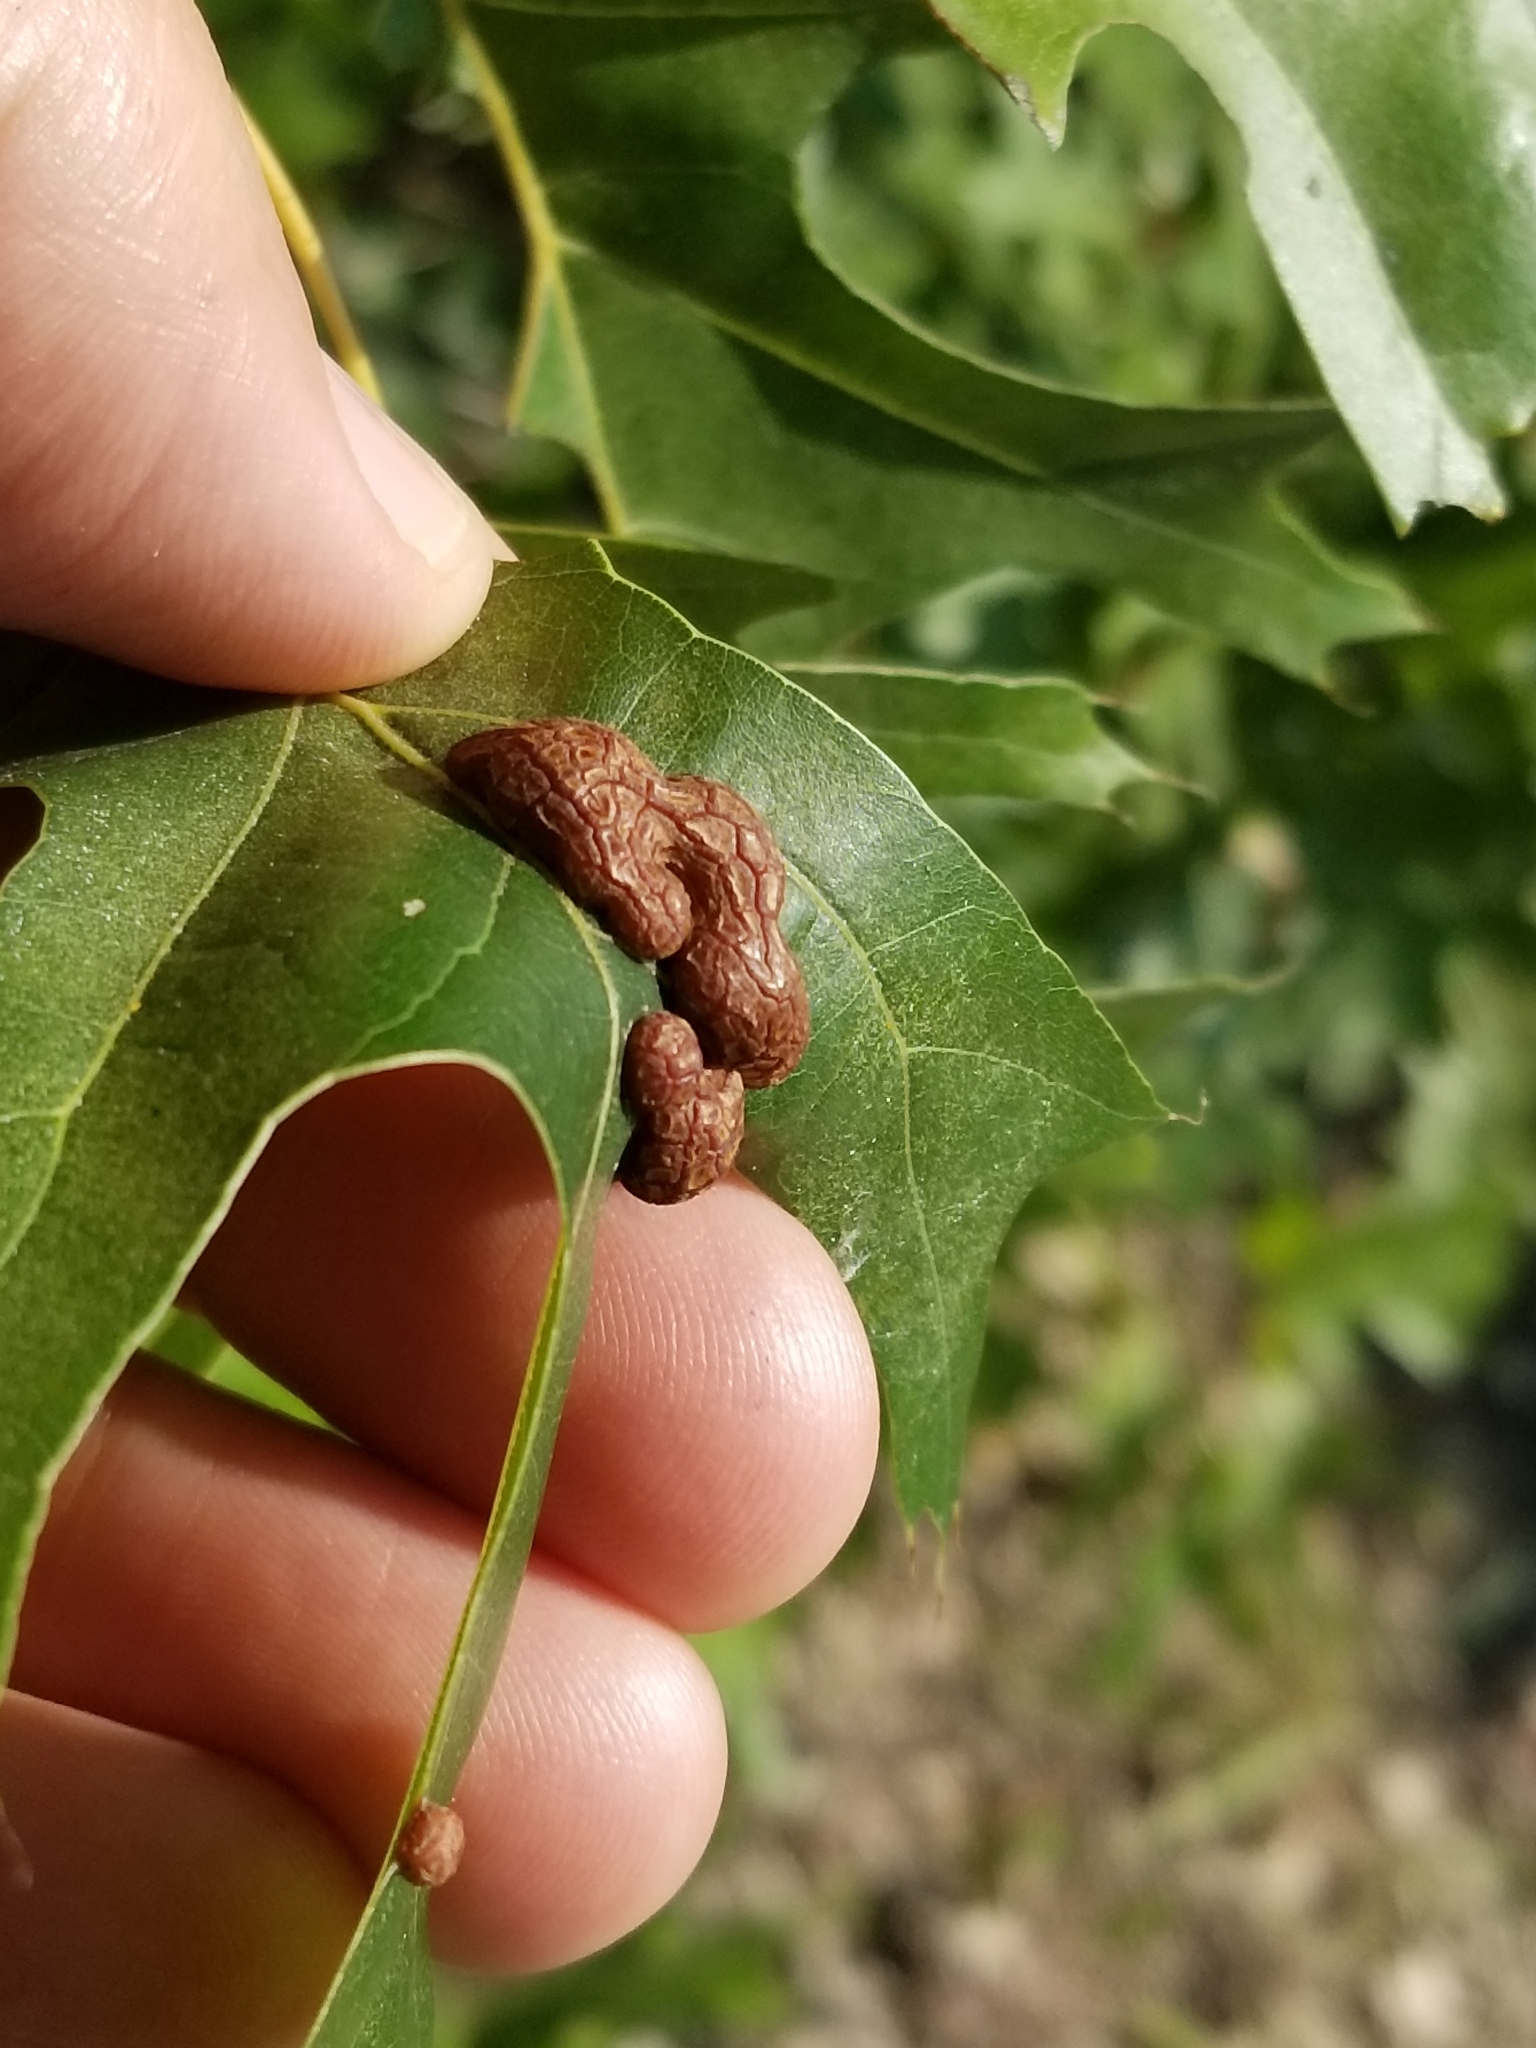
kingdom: Animalia
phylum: Arthropoda
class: Insecta
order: Diptera
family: Cecidomyiidae
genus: Polystepha
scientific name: Polystepha pilulae
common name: Oak leaf gall midge
